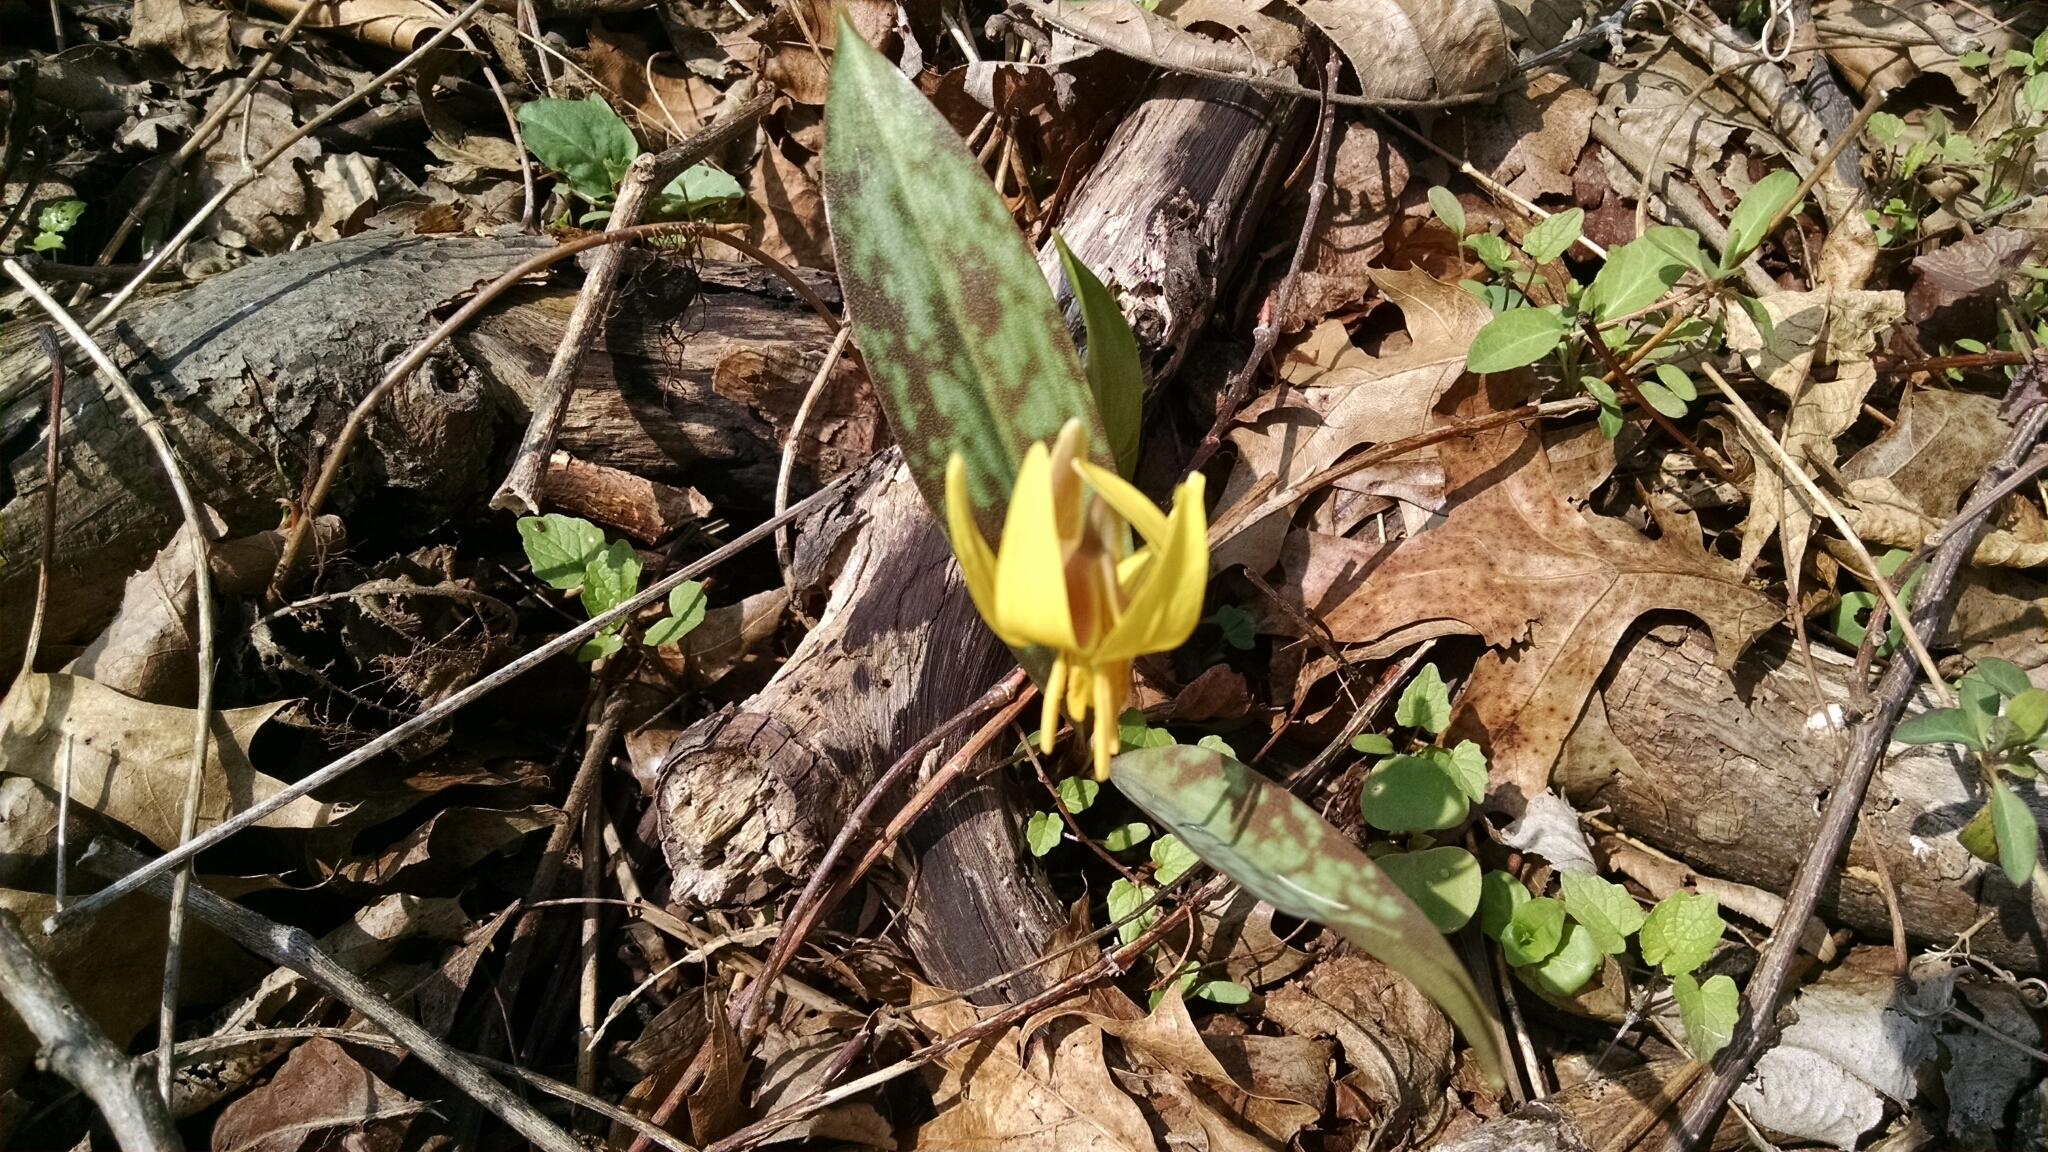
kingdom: Plantae
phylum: Tracheophyta
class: Liliopsida
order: Liliales
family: Liliaceae
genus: Erythronium
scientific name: Erythronium americanum
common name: Yellow adder's-tongue
